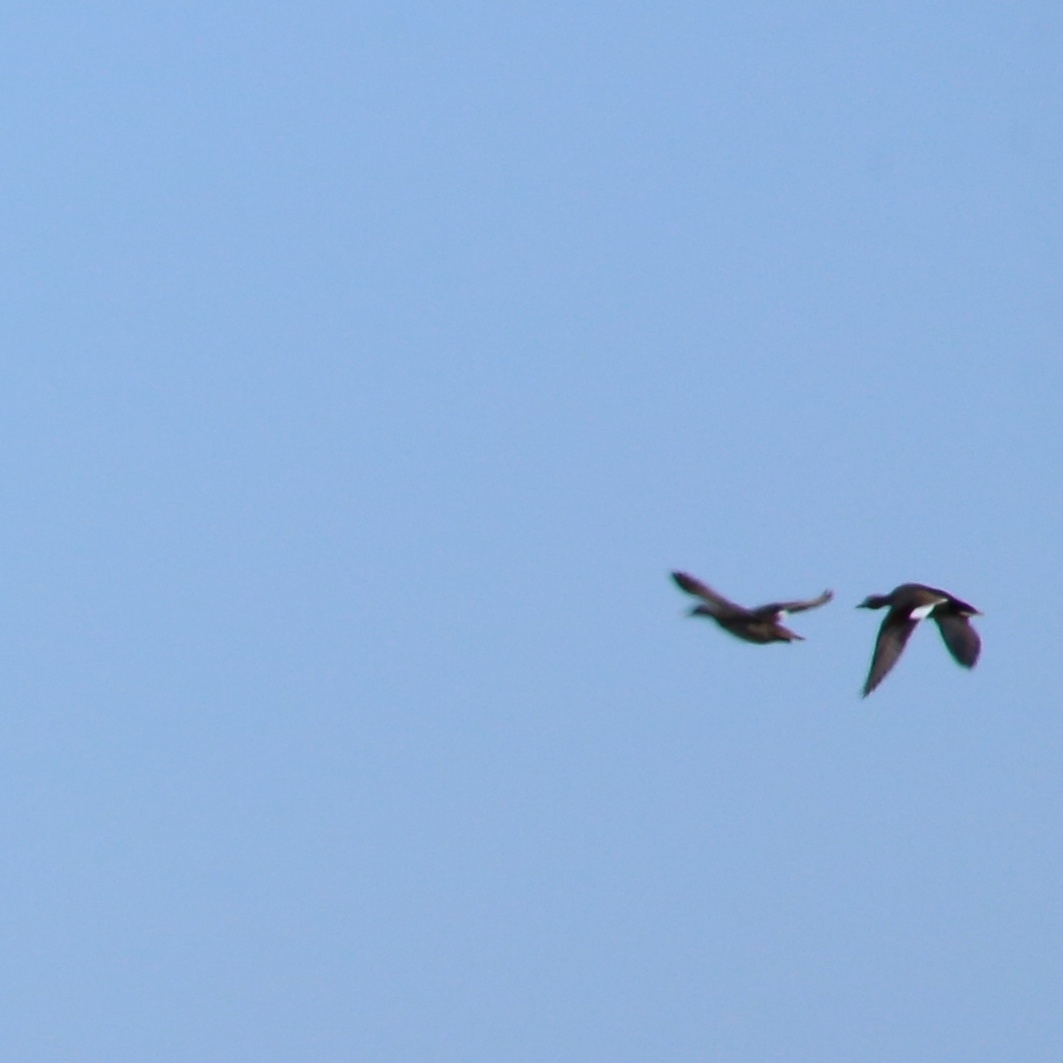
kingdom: Animalia
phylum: Chordata
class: Aves
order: Anseriformes
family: Anatidae
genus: Mareca
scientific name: Mareca strepera
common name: Gadwall
